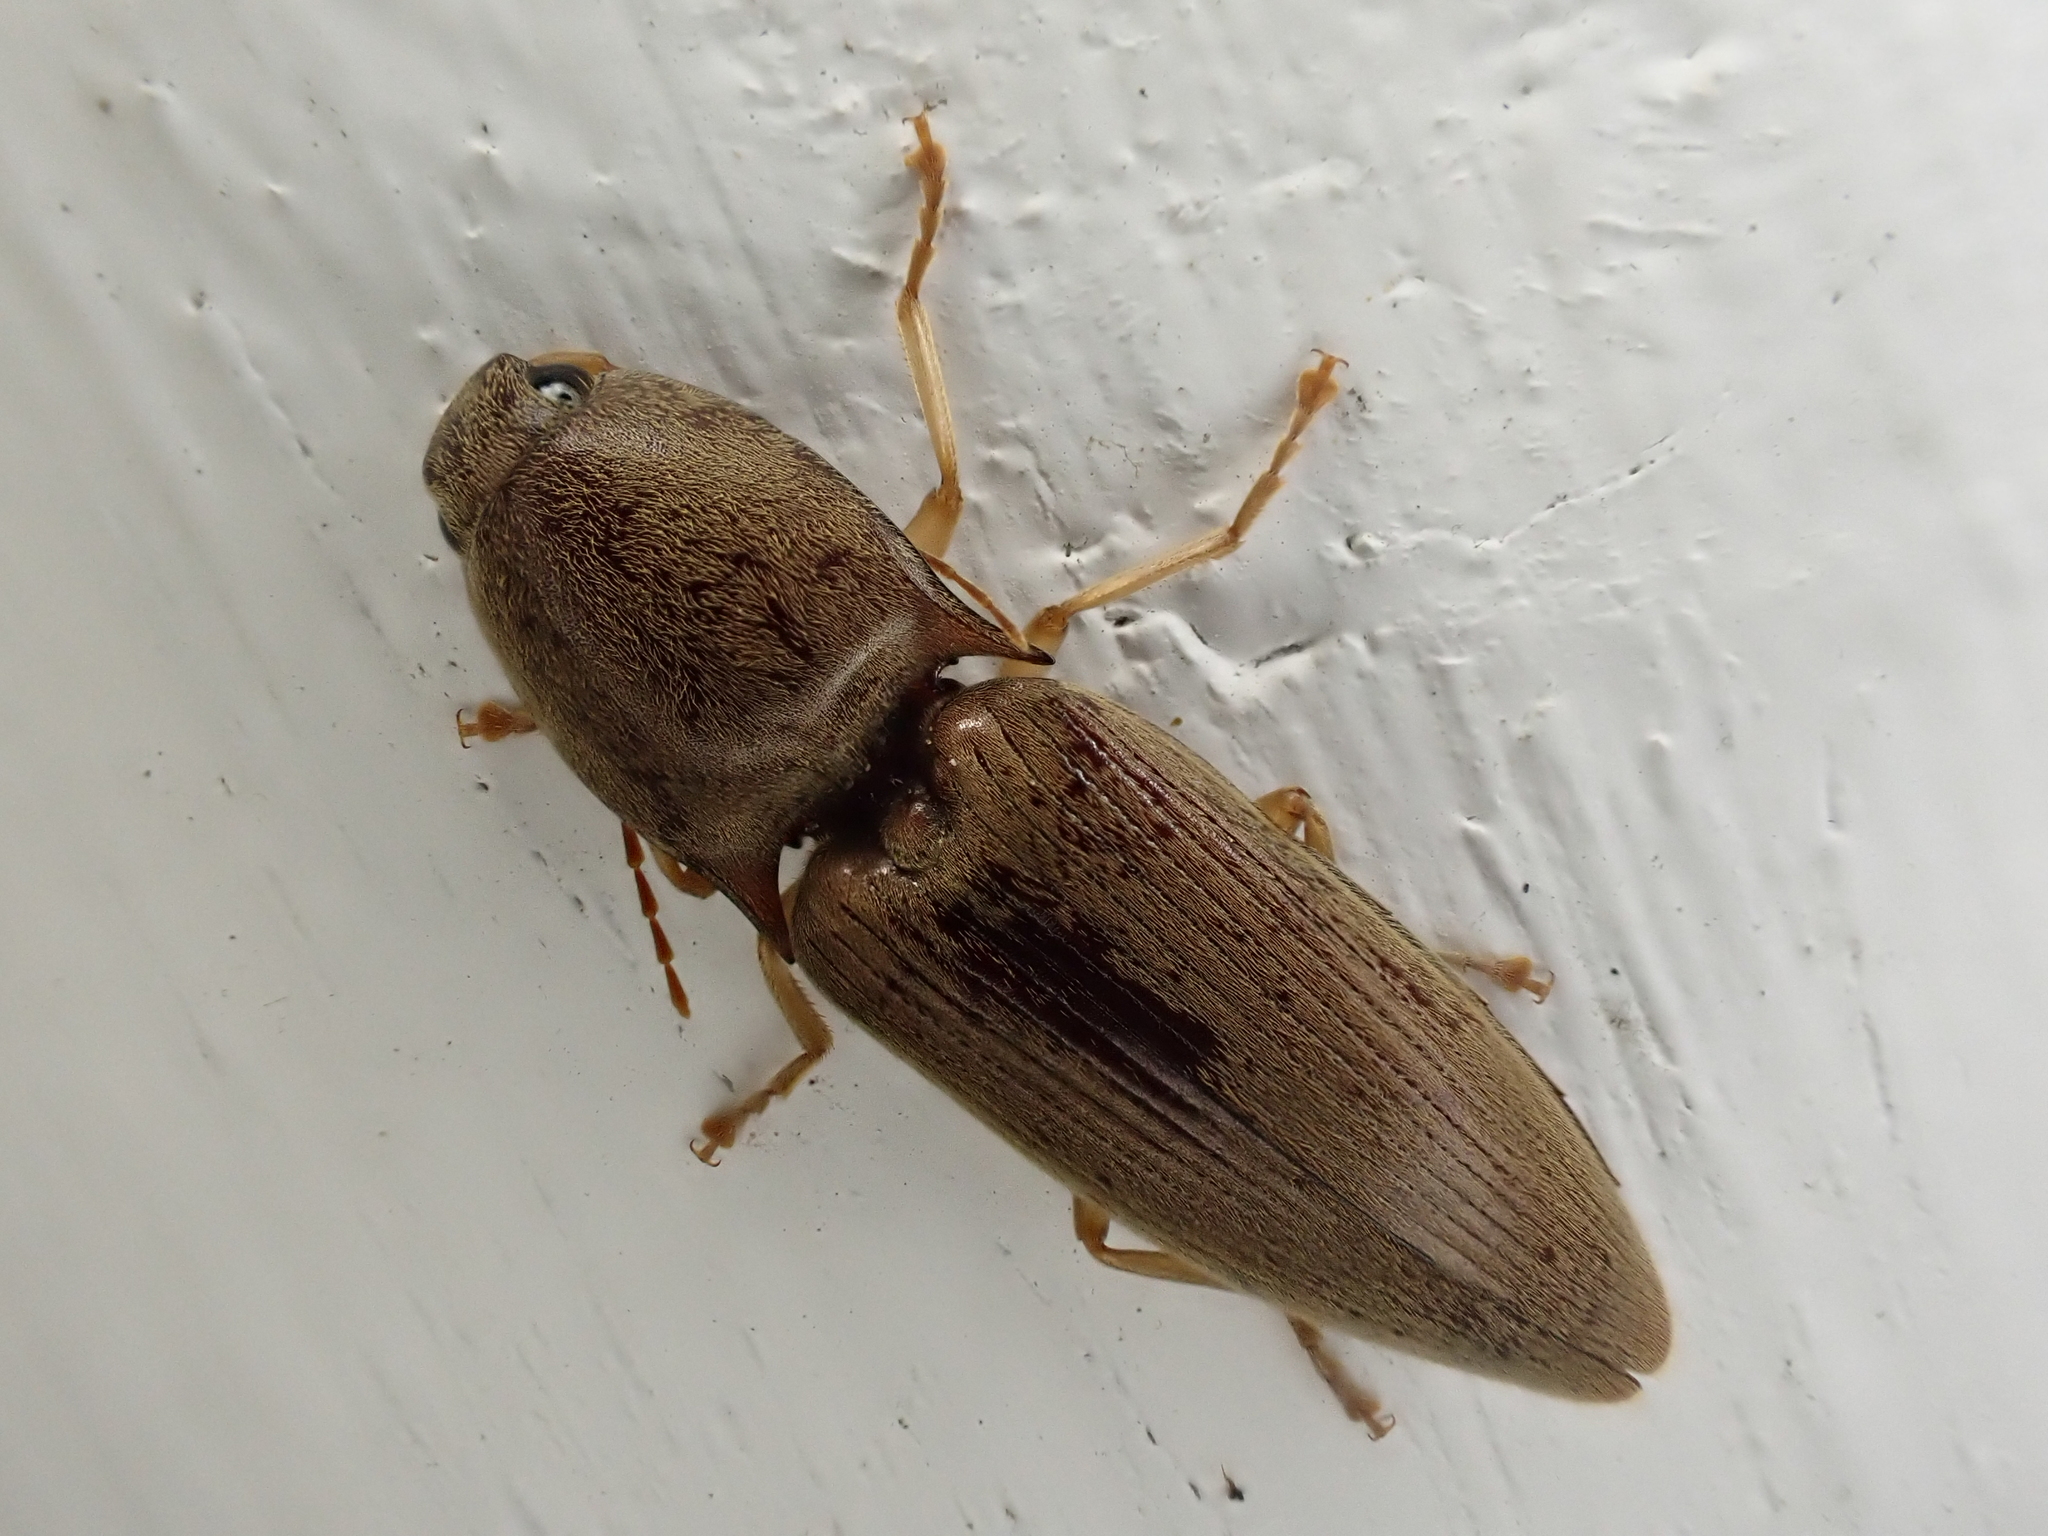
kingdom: Animalia
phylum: Arthropoda
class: Insecta
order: Coleoptera
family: Elateridae
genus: Monocrepidius
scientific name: Monocrepidius lividus
